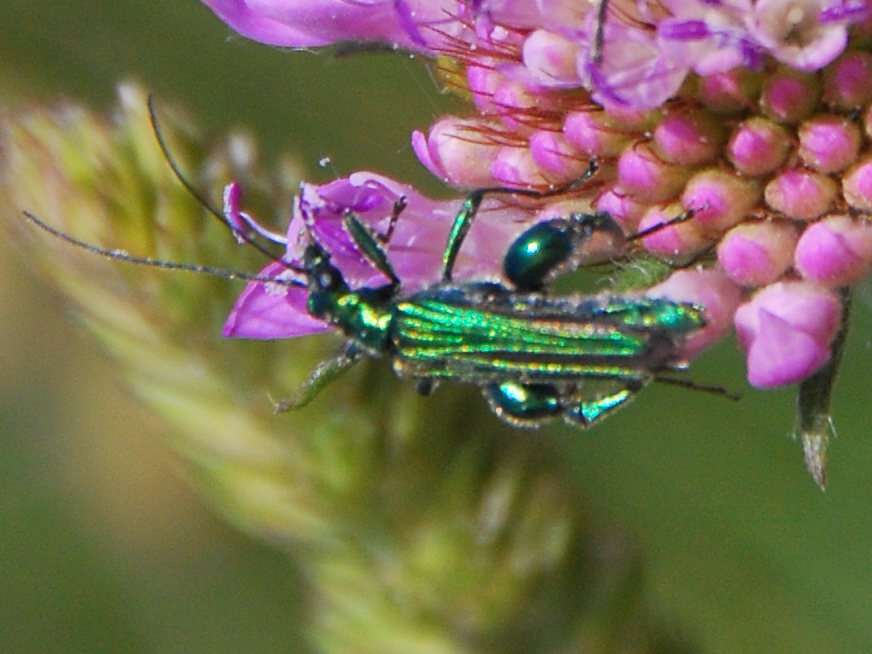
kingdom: Animalia
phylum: Arthropoda
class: Insecta
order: Coleoptera
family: Oedemeridae
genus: Oedemera
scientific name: Oedemera nobilis
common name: Swollen-thighed beetle
